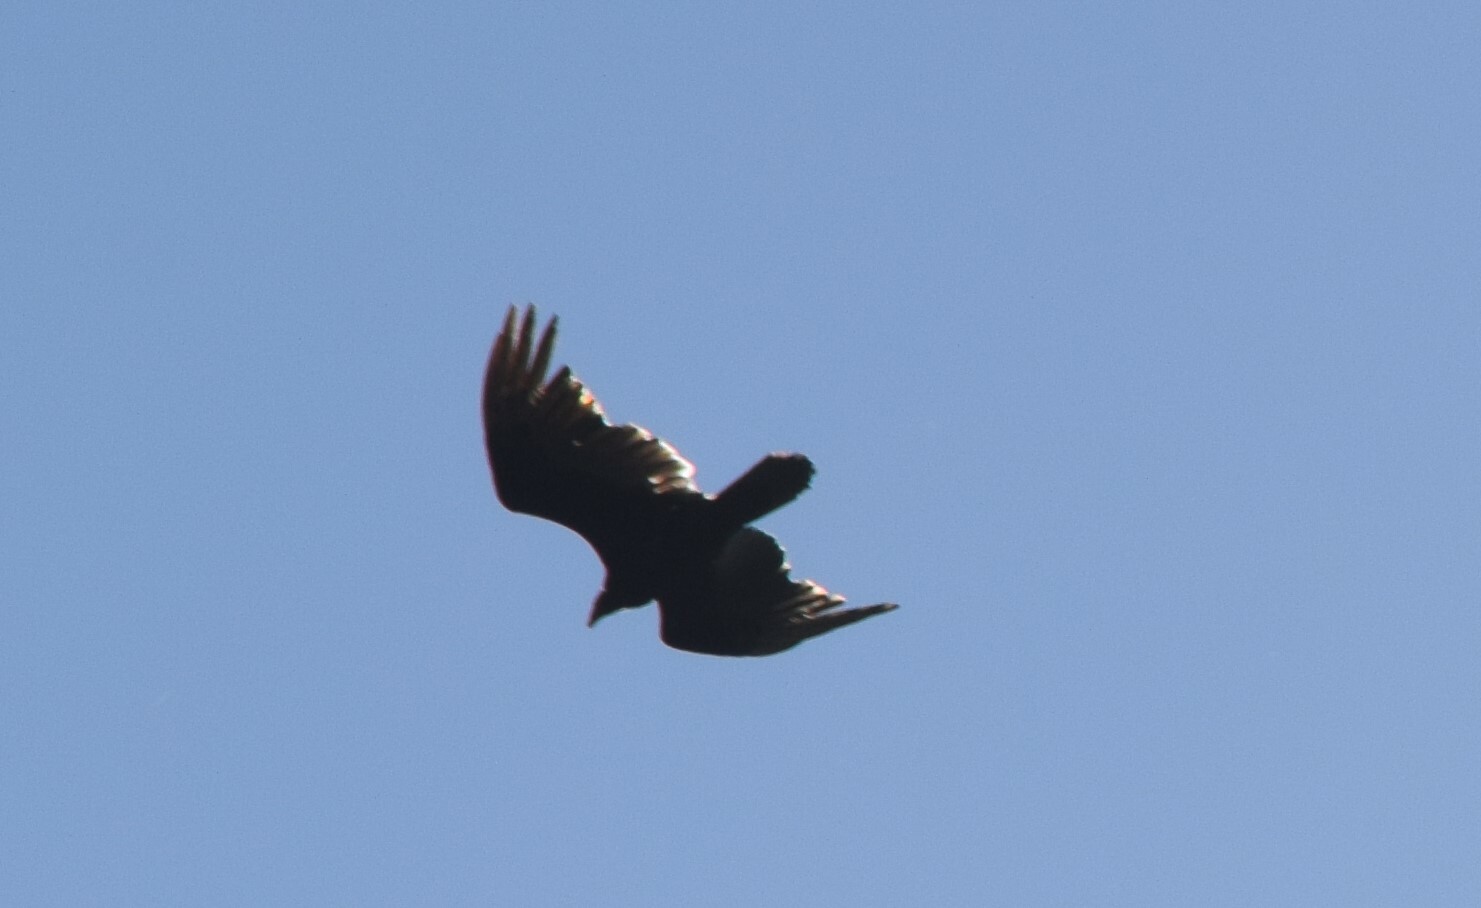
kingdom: Animalia
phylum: Chordata
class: Aves
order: Accipitriformes
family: Cathartidae
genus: Cathartes
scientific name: Cathartes aura
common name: Turkey vulture
